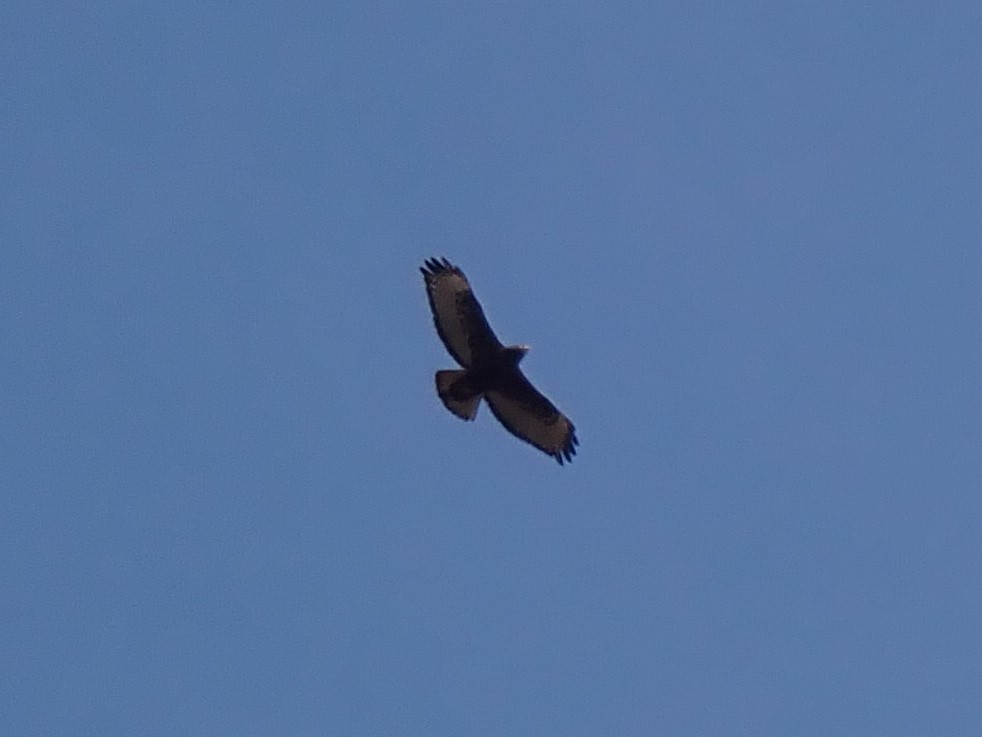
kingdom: Animalia
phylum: Chordata
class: Aves
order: Accipitriformes
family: Accipitridae
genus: Buteo
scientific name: Buteo jamaicensis
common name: Red-tailed hawk
